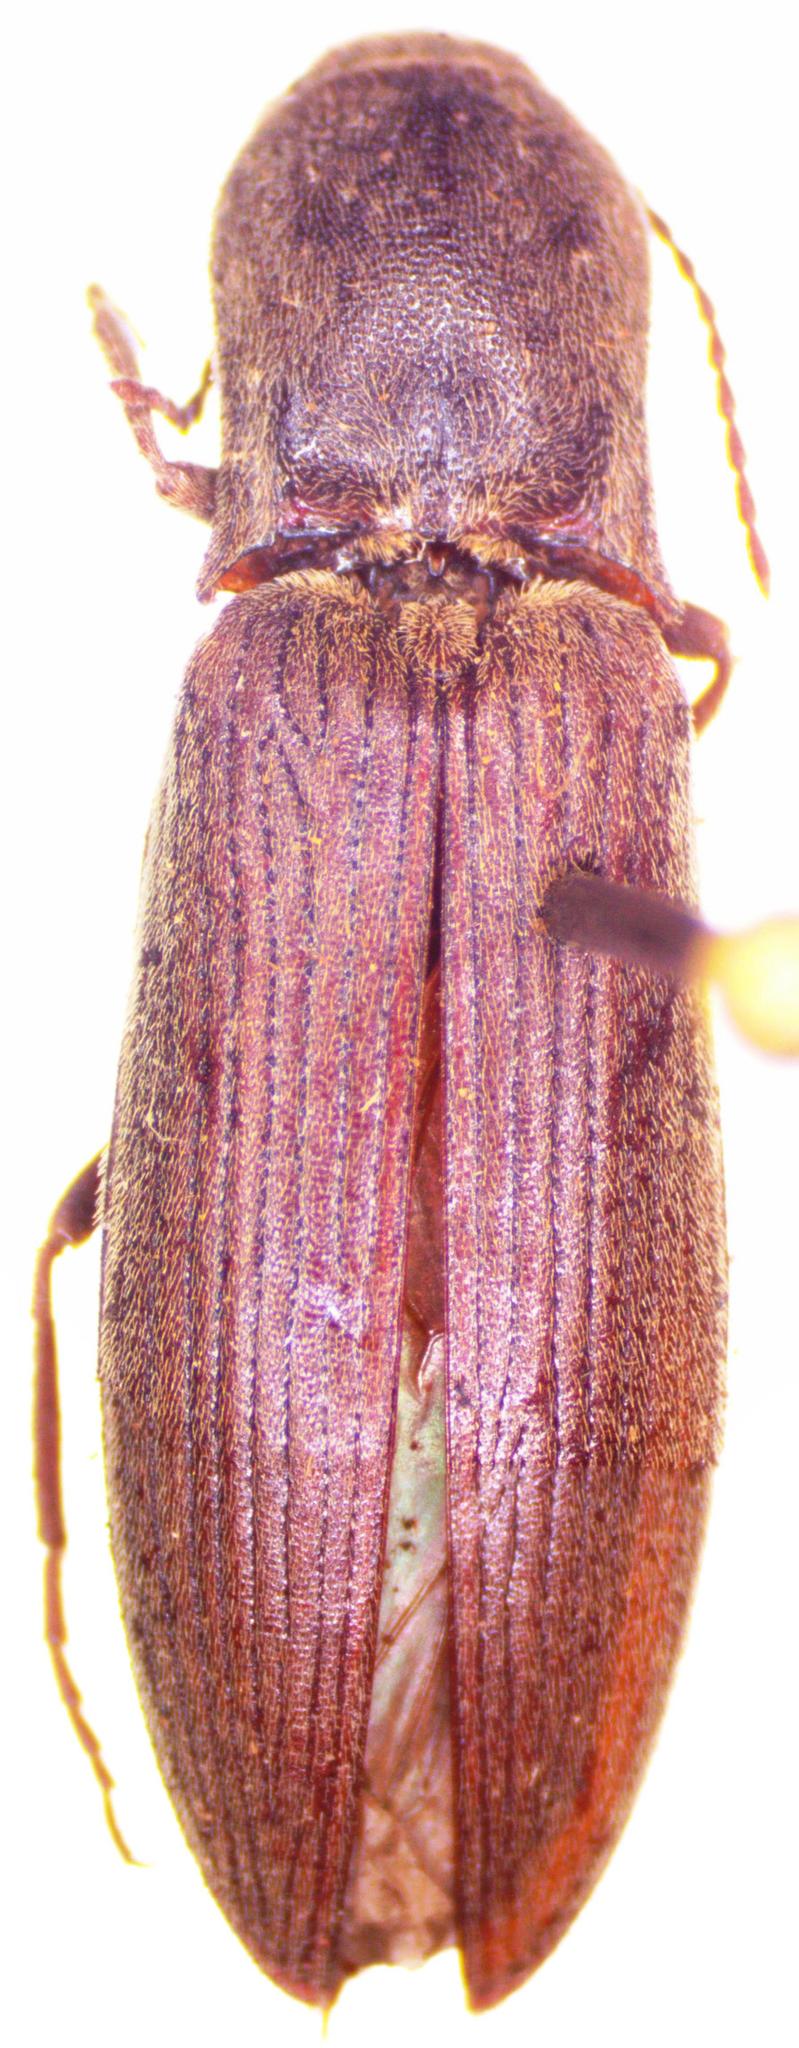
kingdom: Animalia
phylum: Arthropoda
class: Insecta
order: Coleoptera
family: Elateridae
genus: Agriotes
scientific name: Agriotes pilosellus
